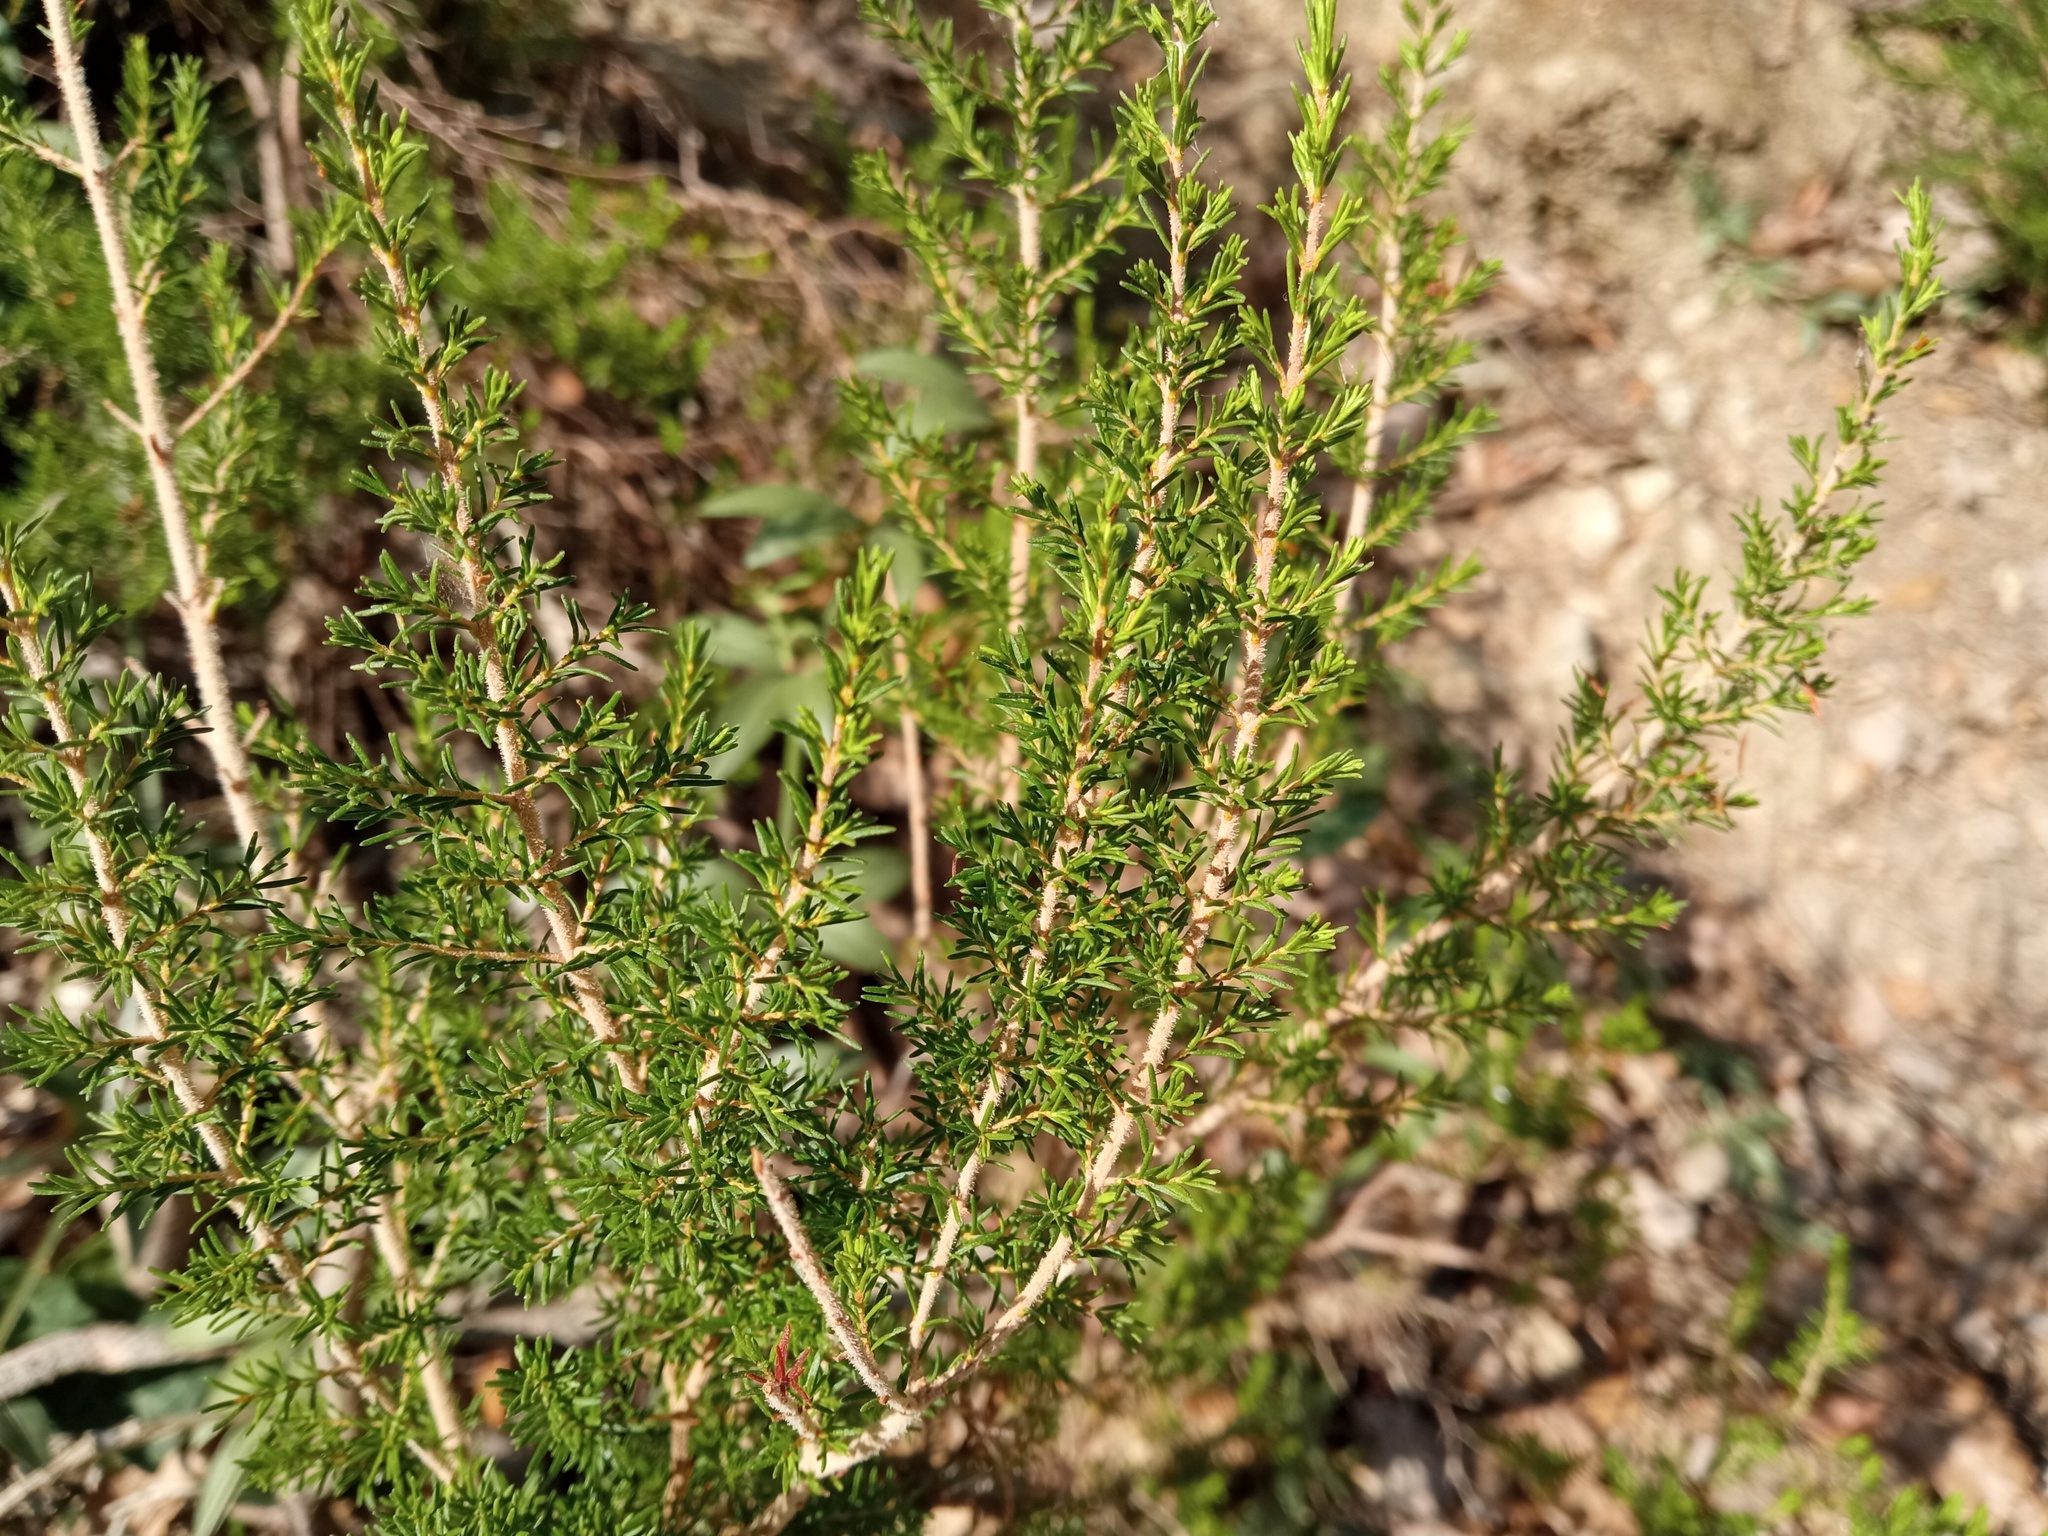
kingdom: Plantae
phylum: Tracheophyta
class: Magnoliopsida
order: Ericales
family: Ericaceae
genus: Erica
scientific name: Erica arborea
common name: Tree heath
